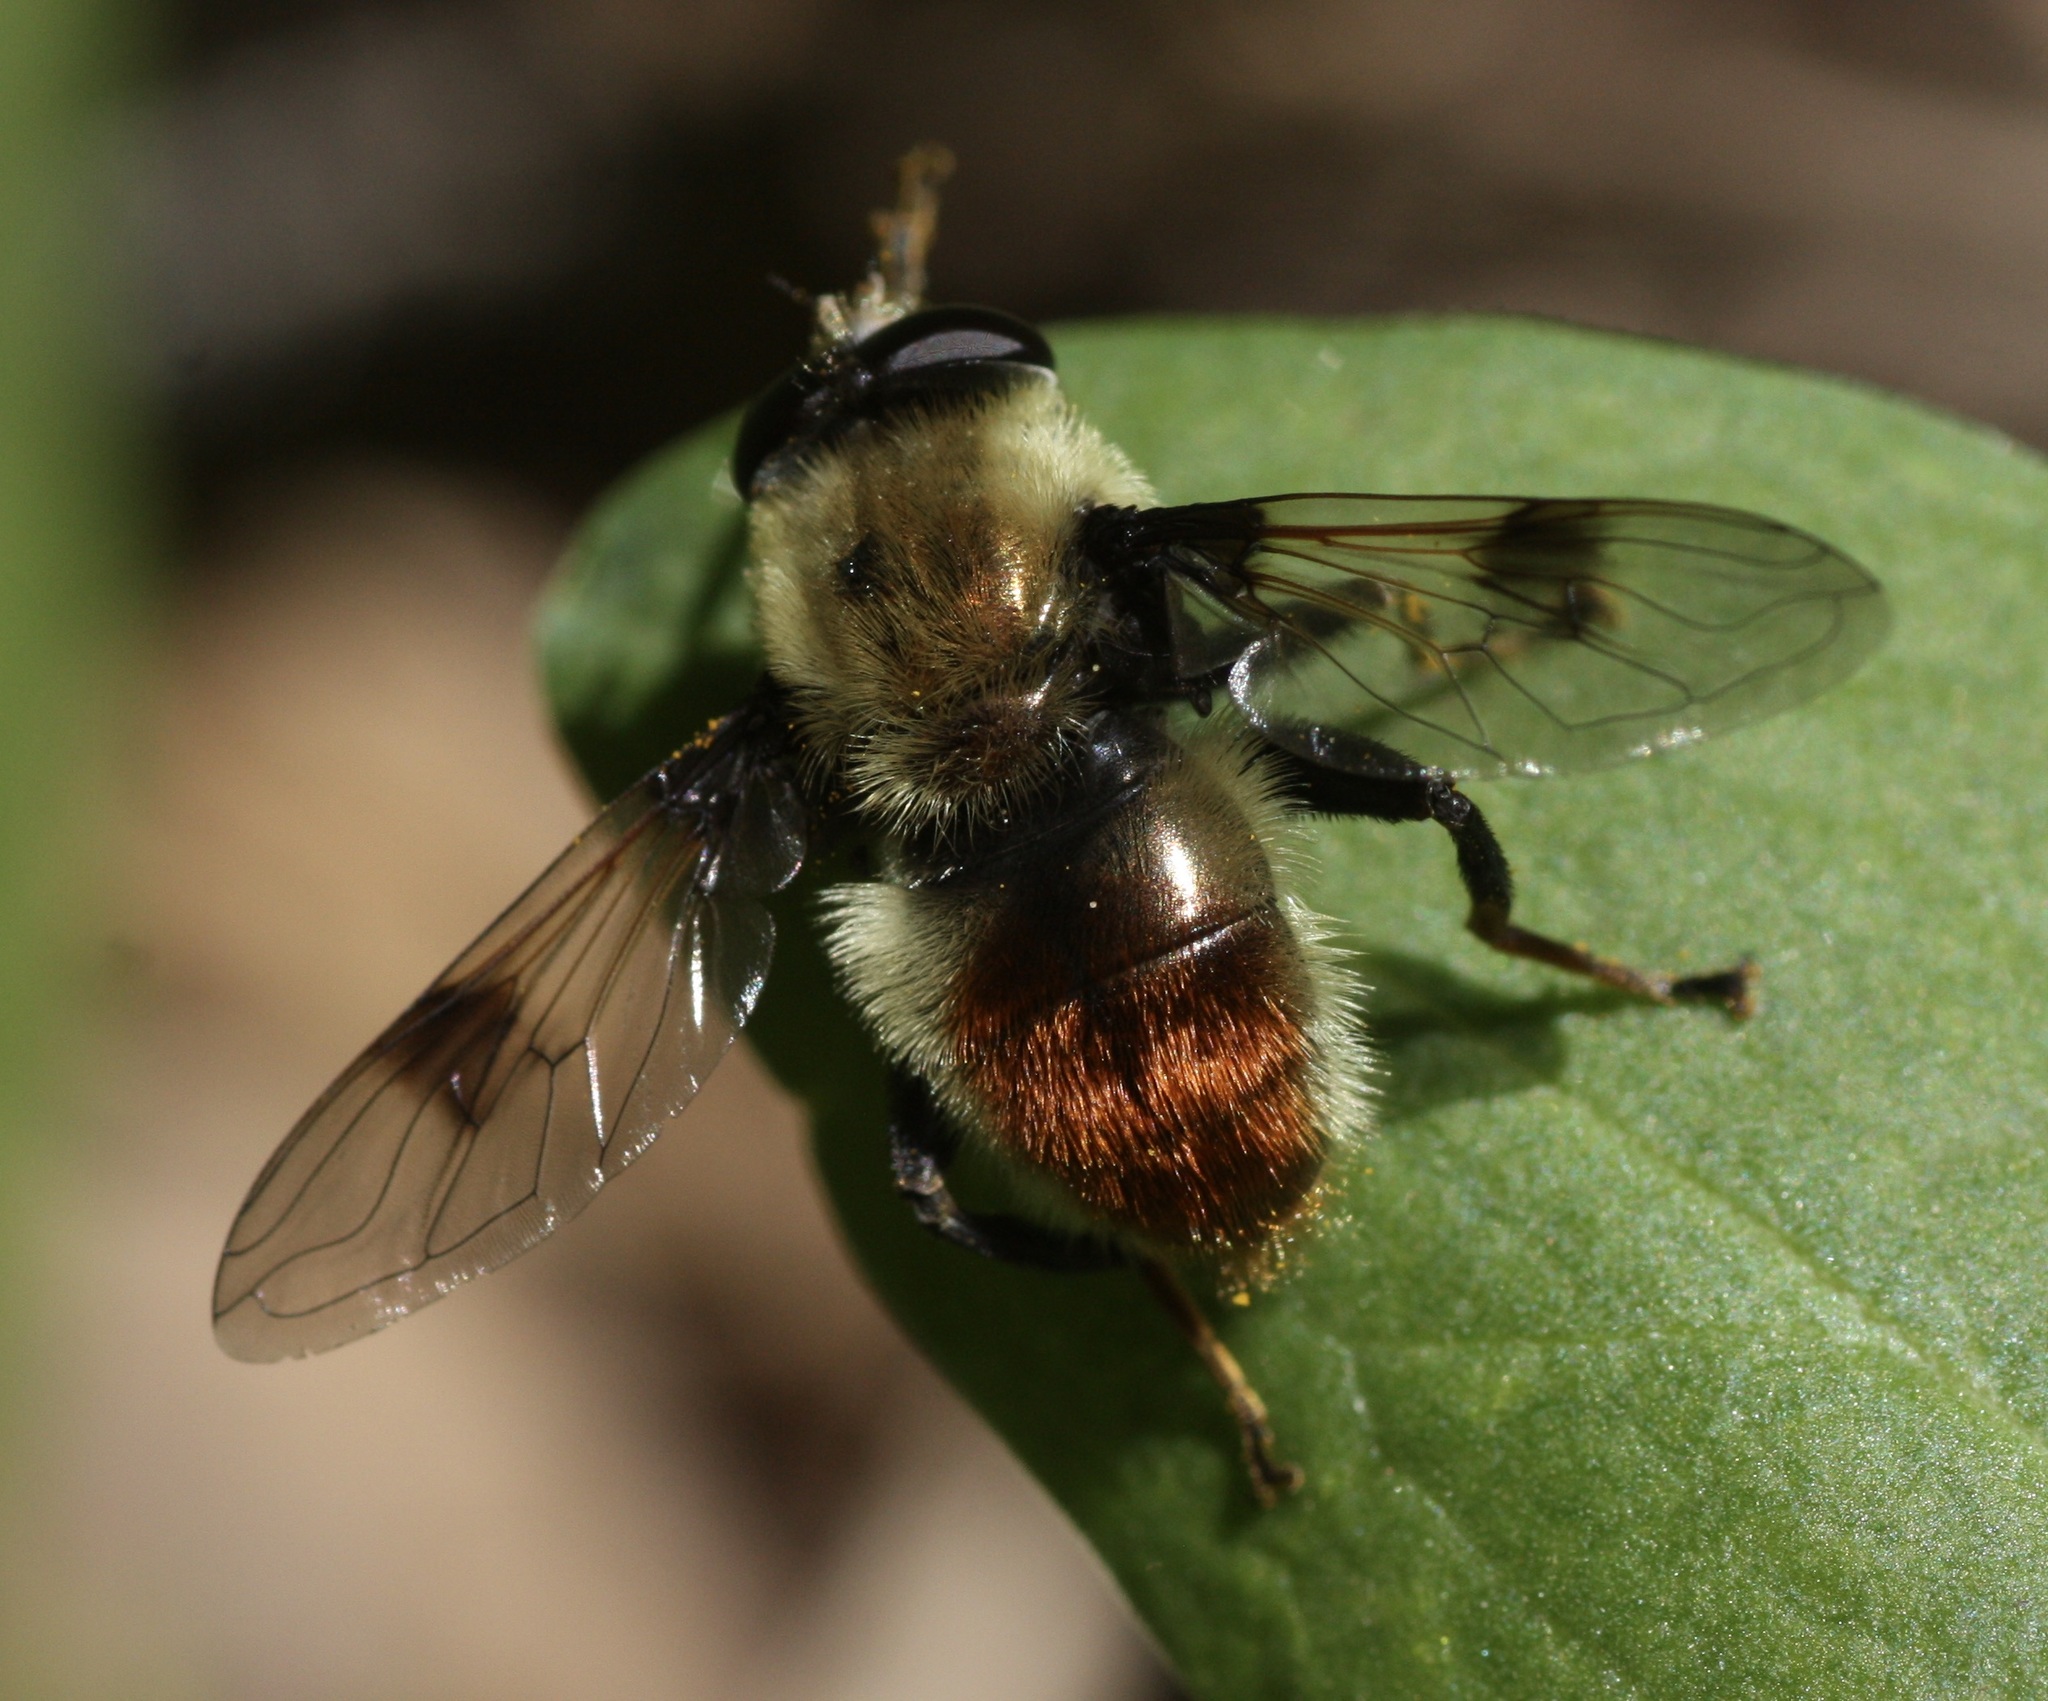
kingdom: Animalia
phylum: Arthropoda
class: Insecta
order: Diptera
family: Syrphidae
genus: Sericomyia
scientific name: Sericomyia flagrans
